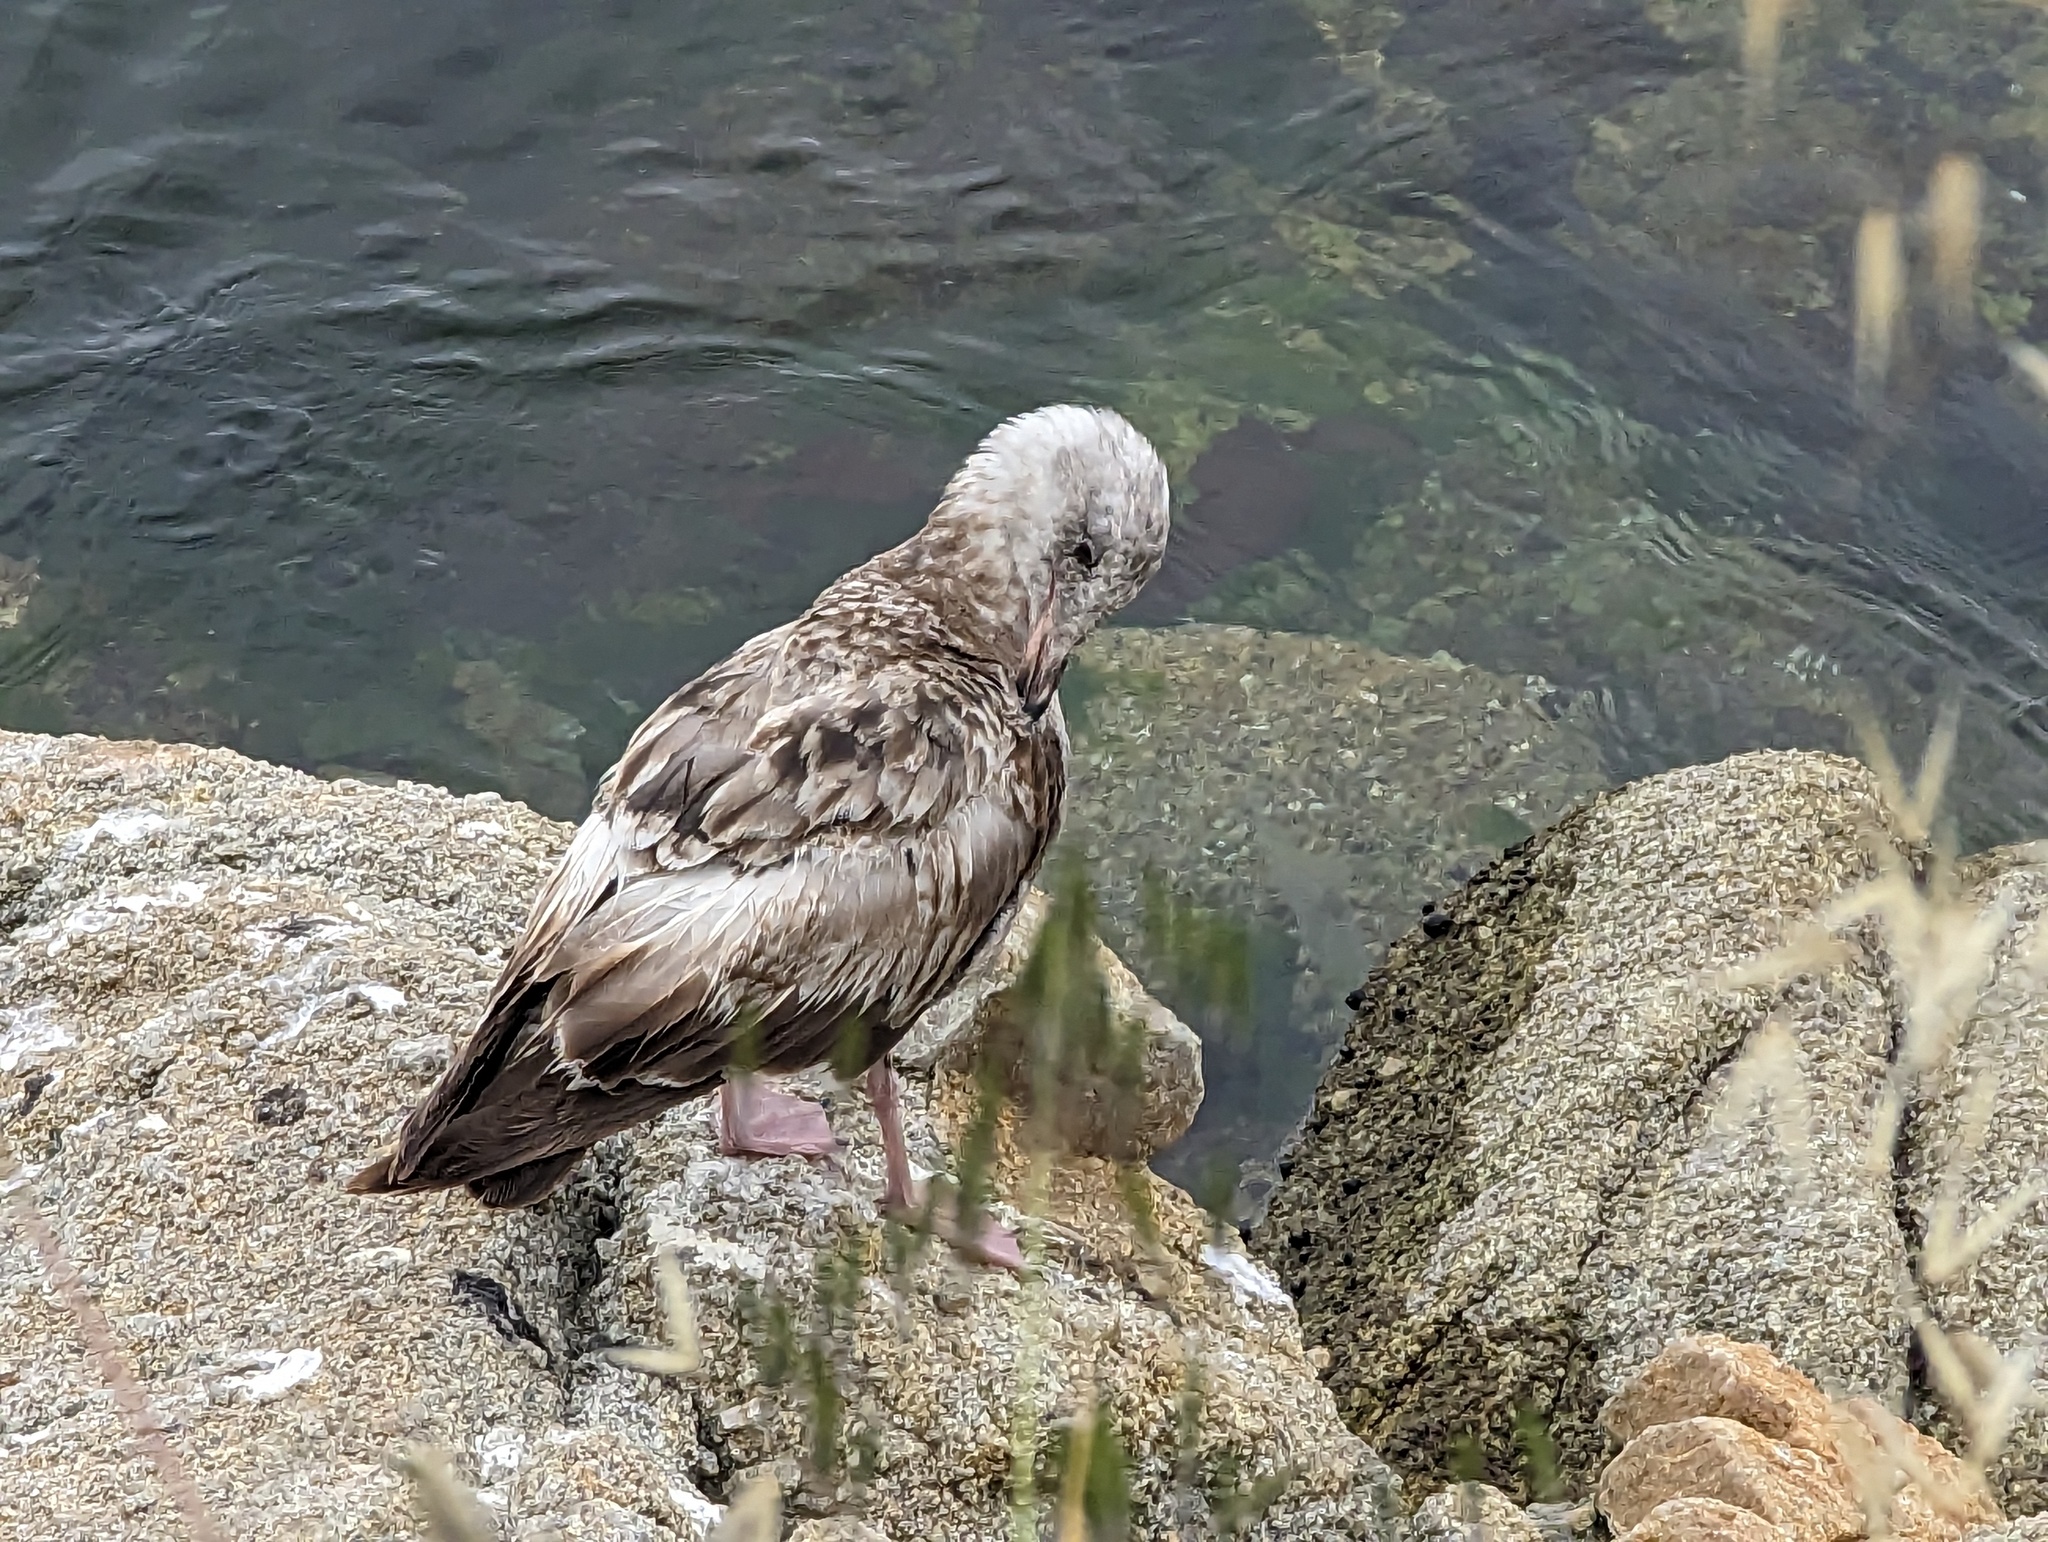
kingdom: Animalia
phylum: Chordata
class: Aves
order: Charadriiformes
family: Laridae
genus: Larus
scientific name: Larus occidentalis
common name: Western gull
